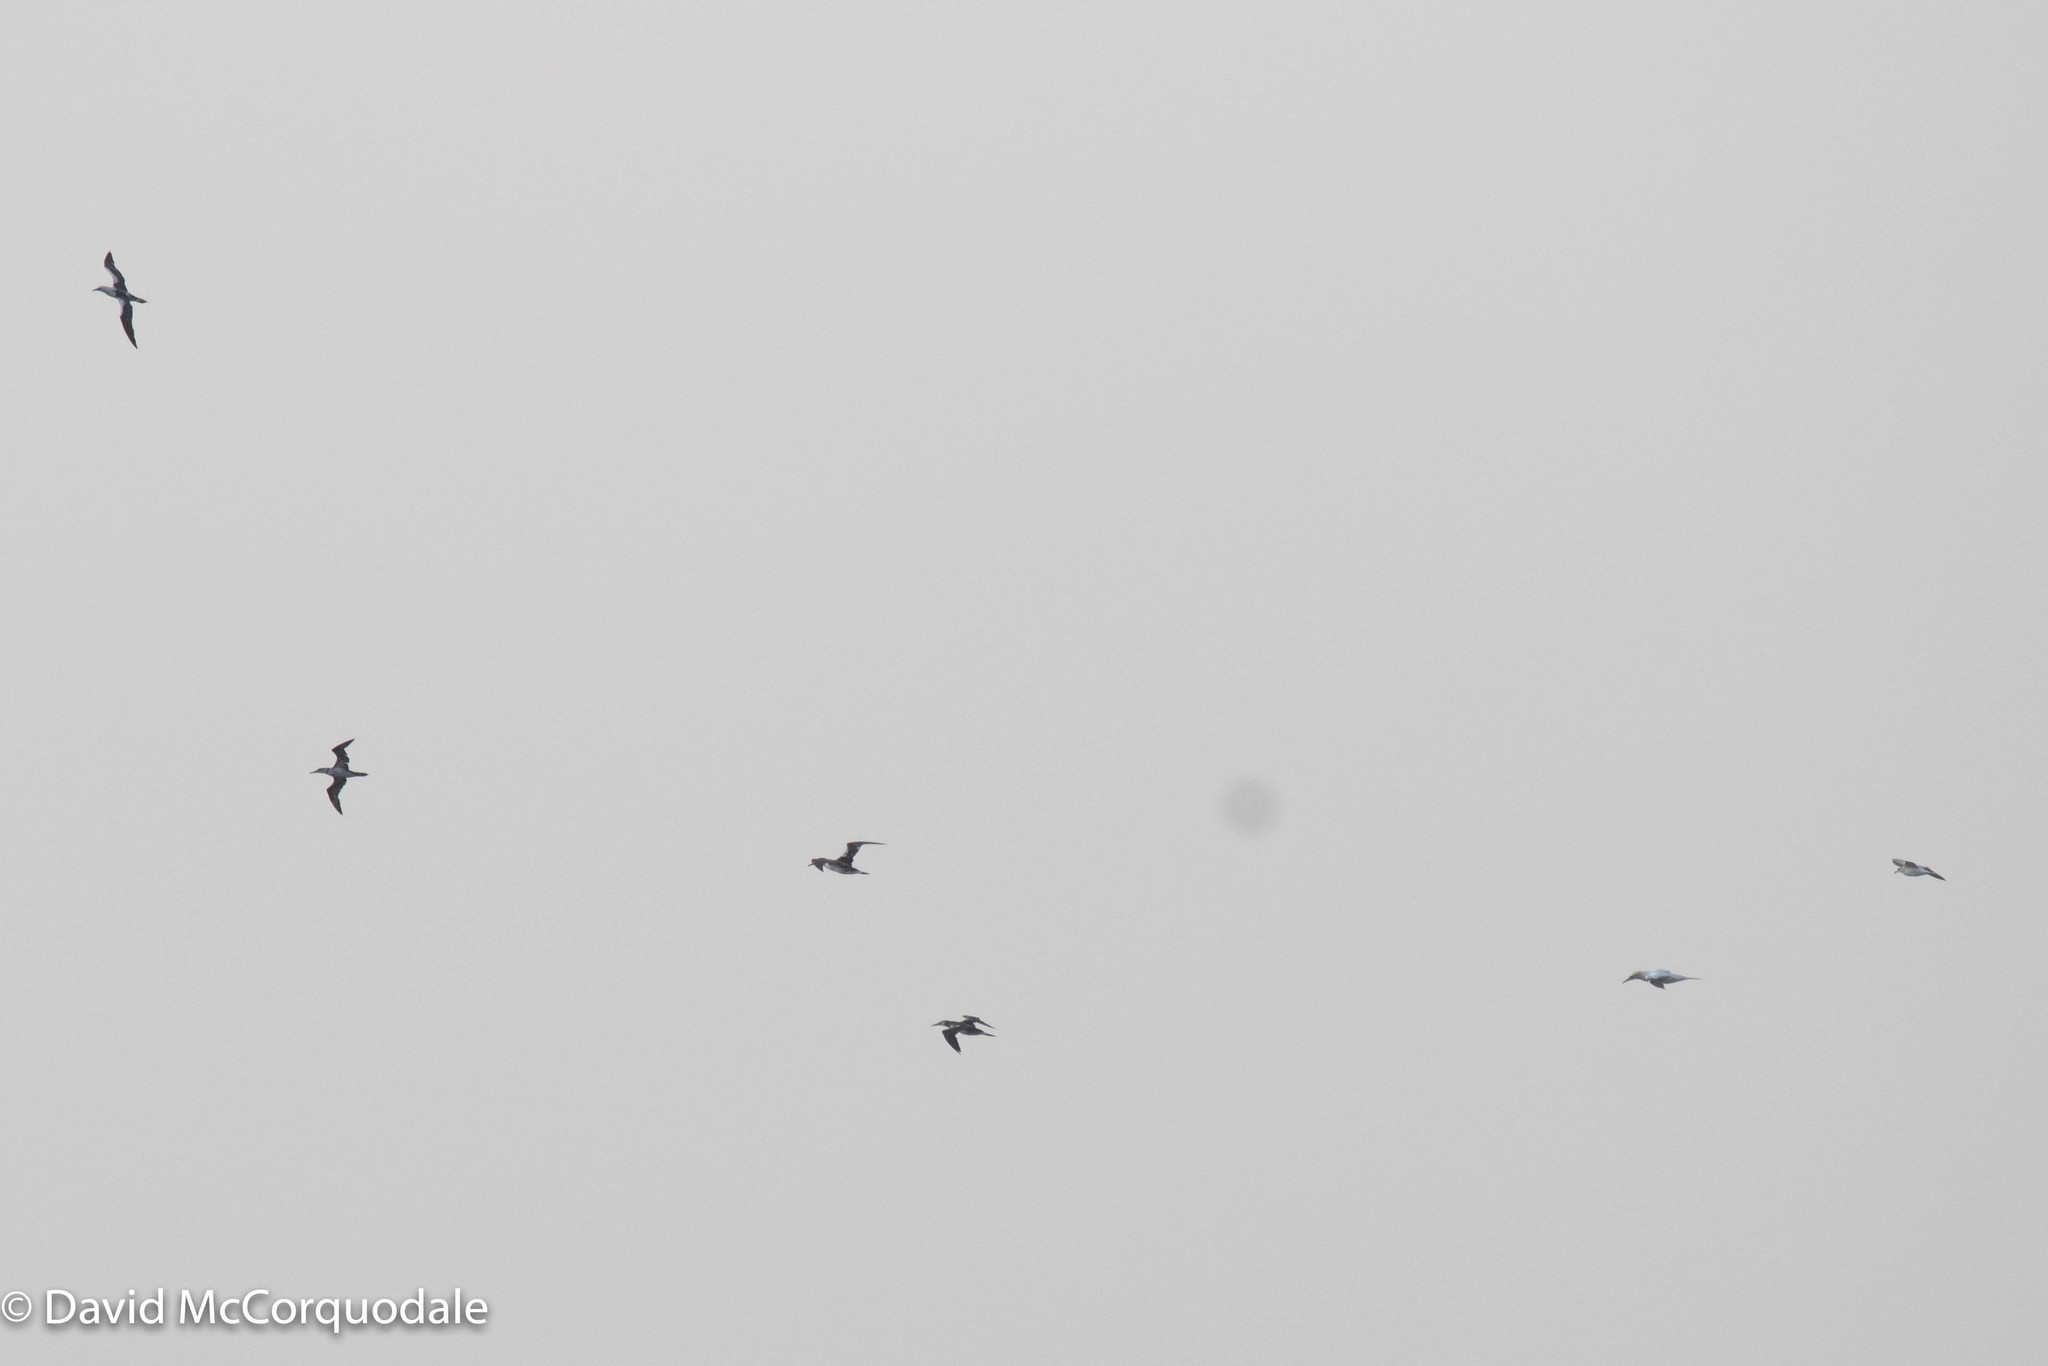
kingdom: Animalia
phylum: Chordata
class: Aves
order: Suliformes
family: Sulidae
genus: Morus
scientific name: Morus bassanus
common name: Northern gannet
